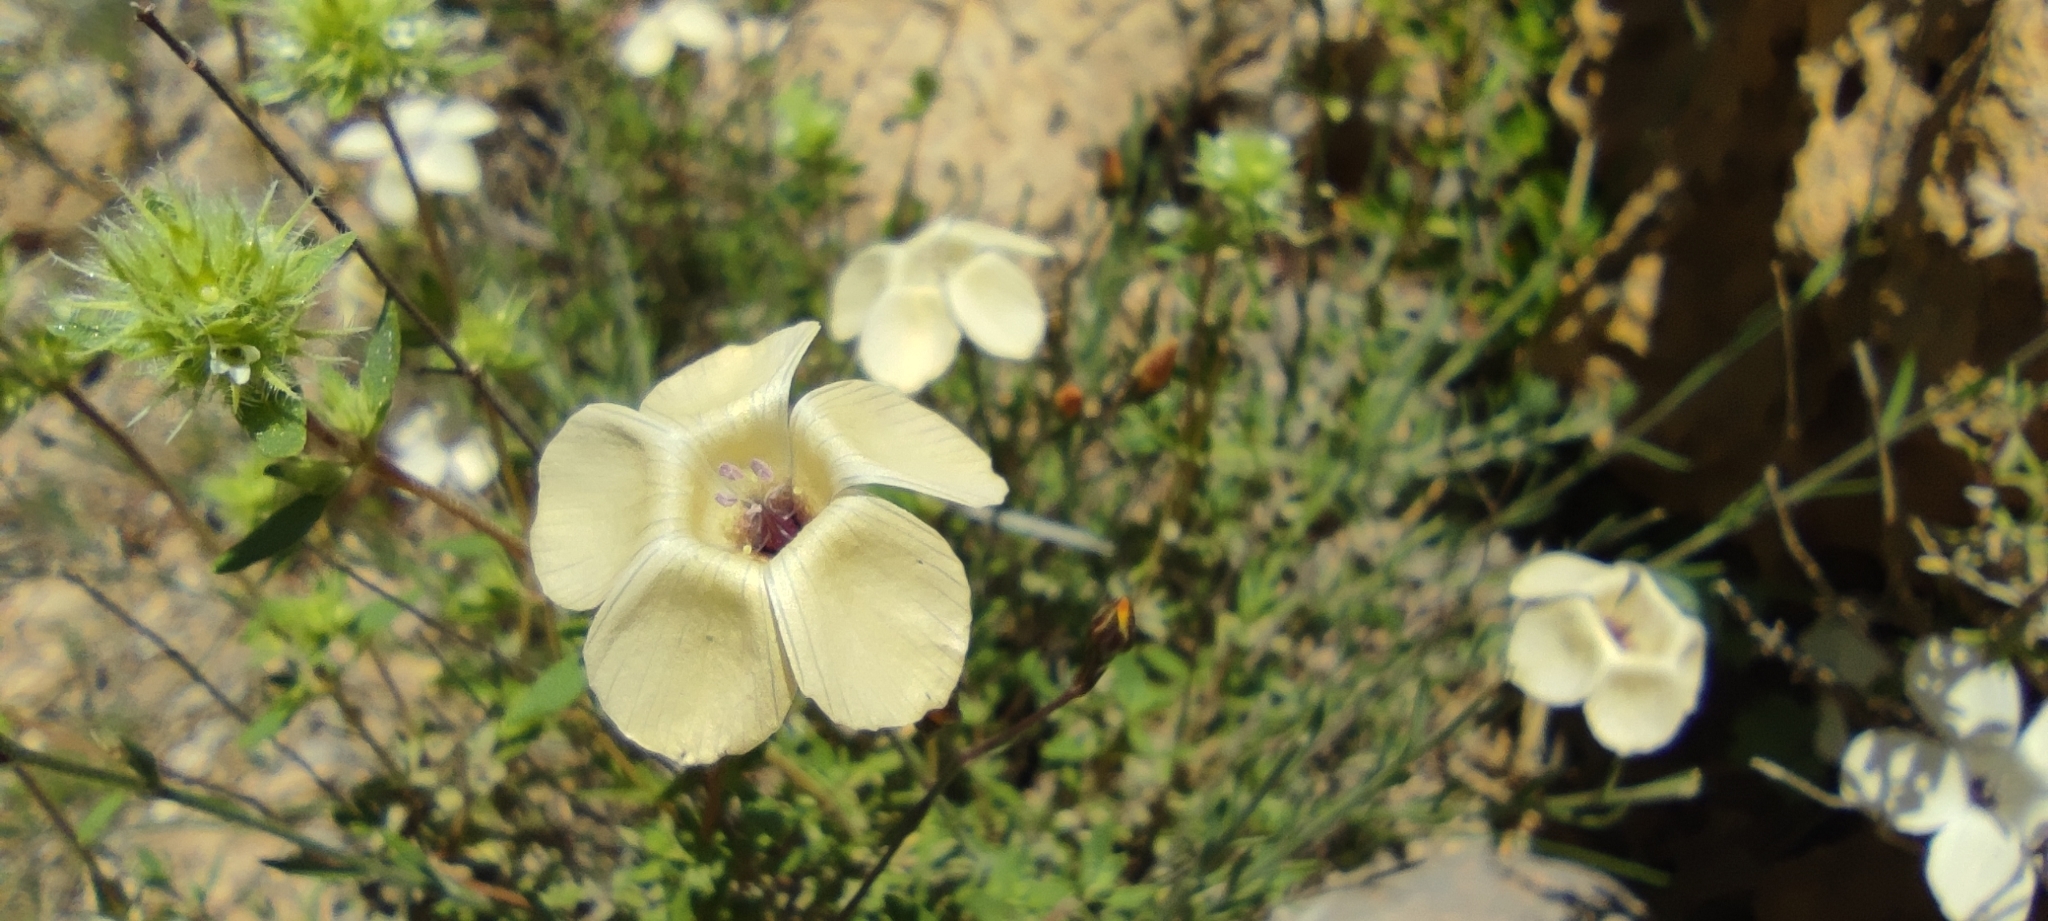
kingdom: Plantae
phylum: Tracheophyta
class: Magnoliopsida
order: Malpighiales
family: Linaceae
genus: Linum
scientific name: Linum suffruticosum
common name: White flax
